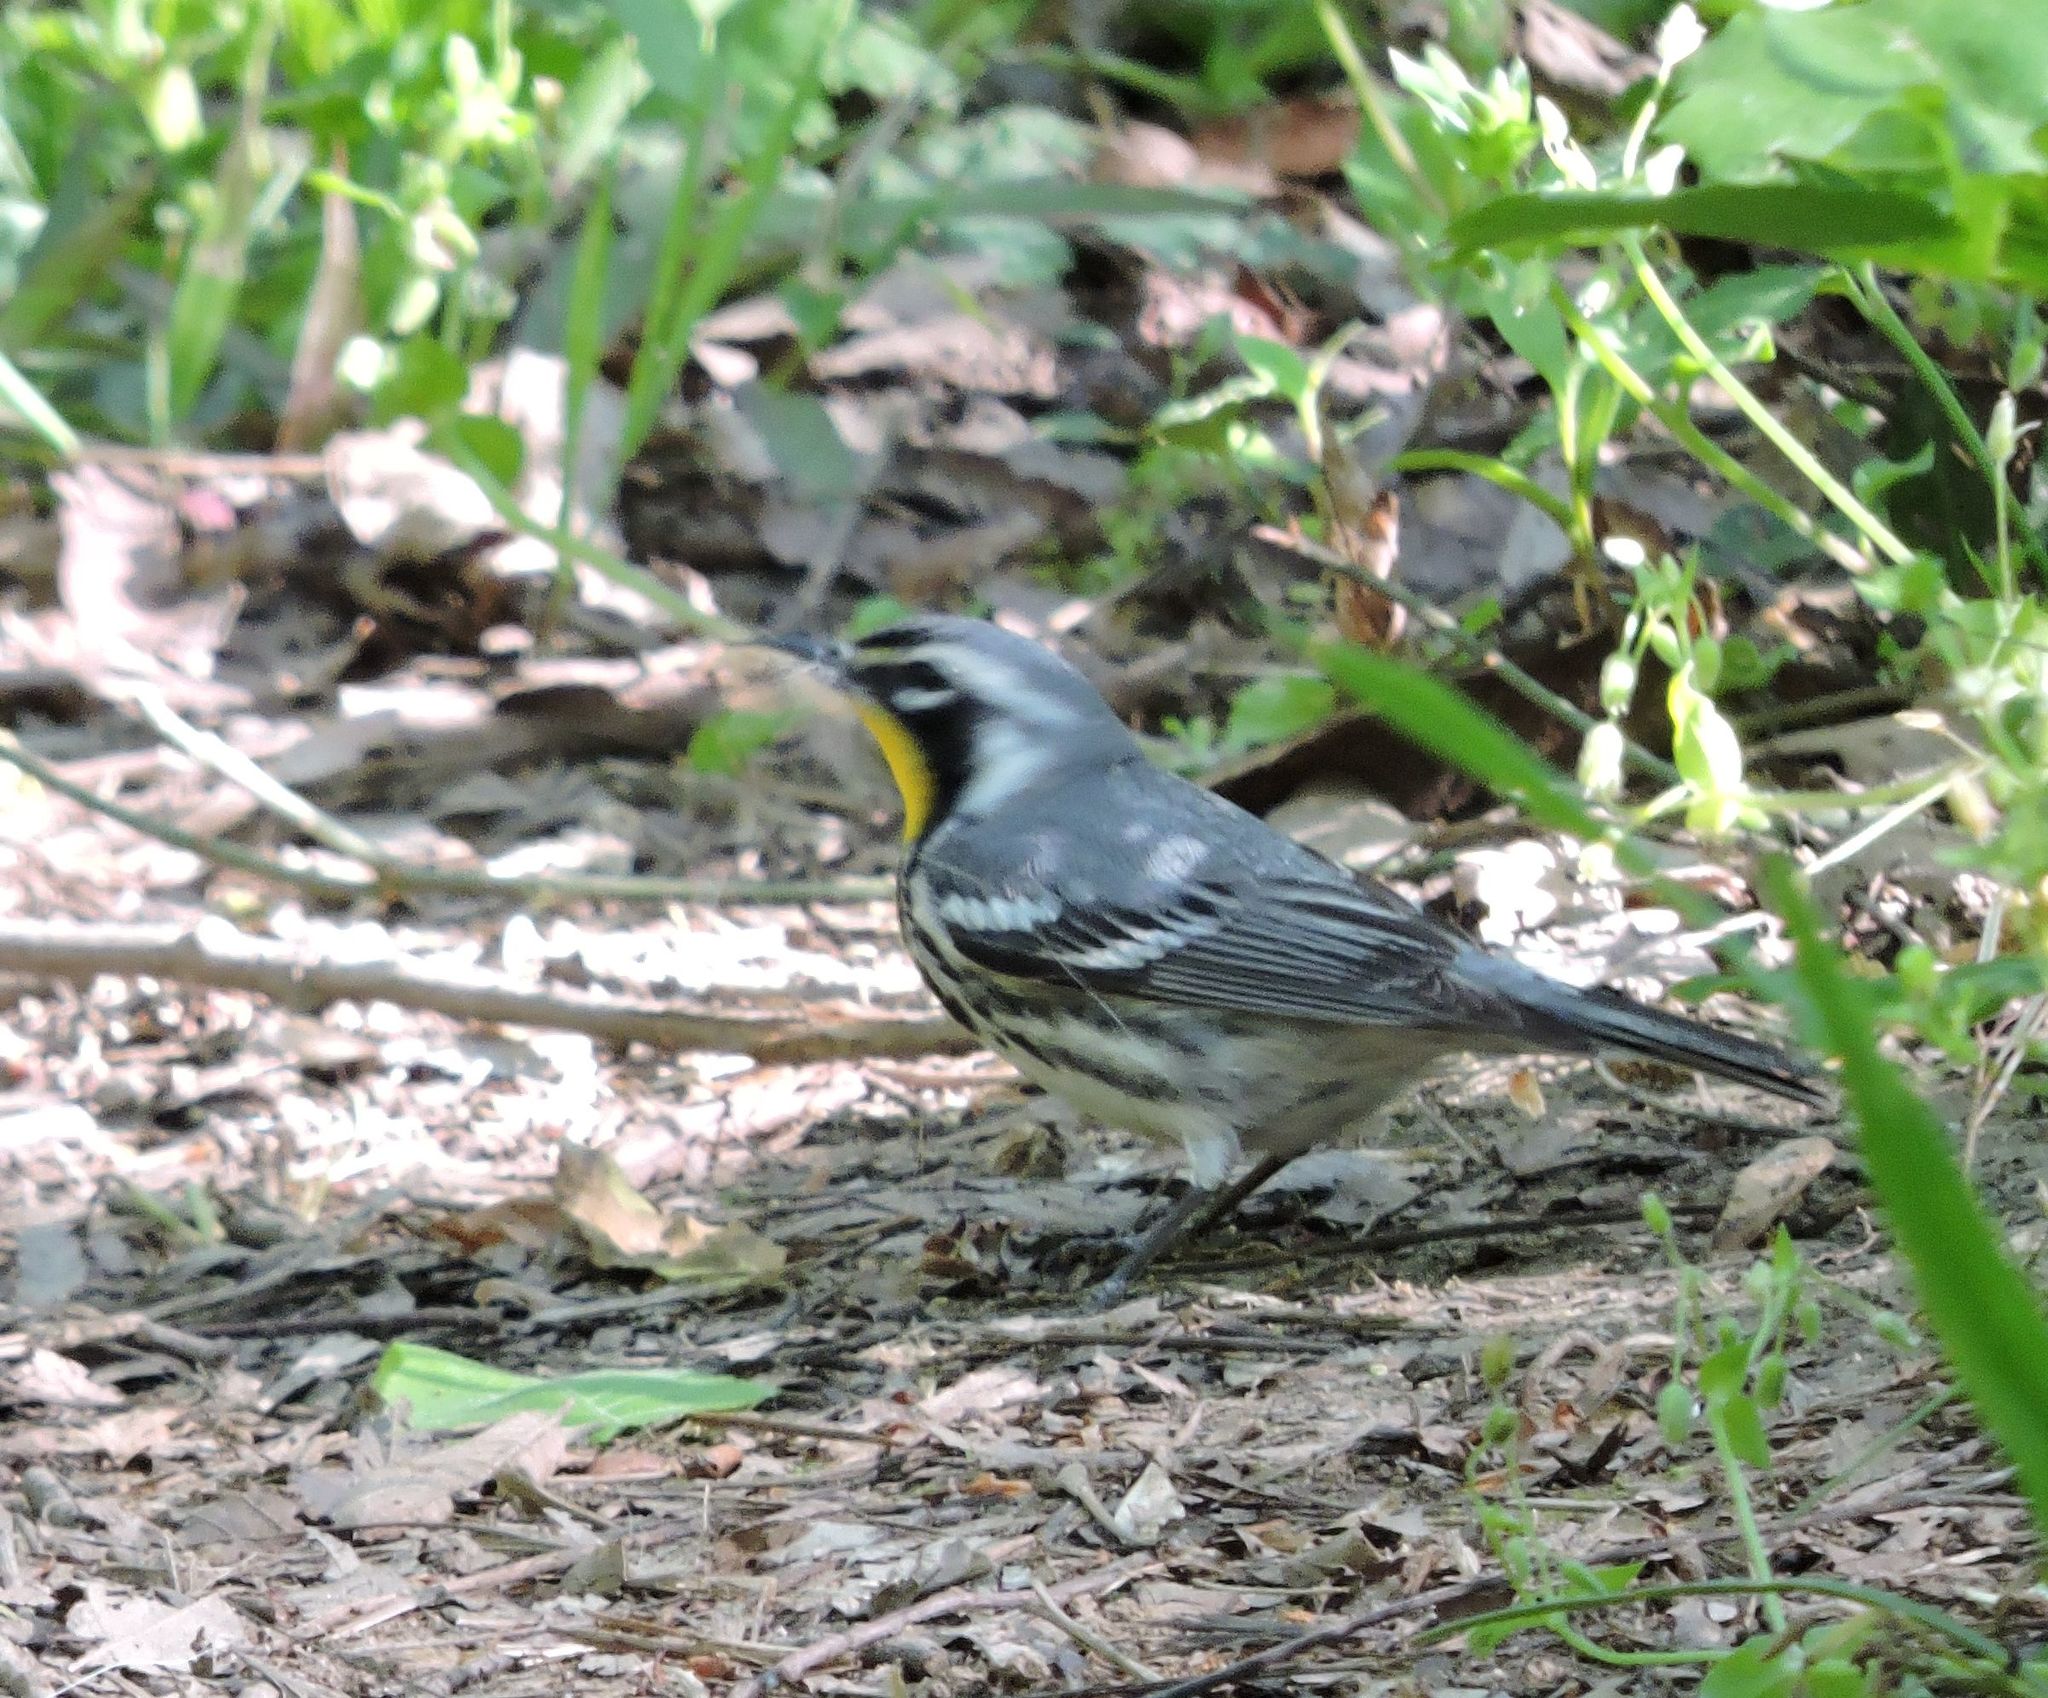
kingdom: Animalia
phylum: Chordata
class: Aves
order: Passeriformes
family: Parulidae
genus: Setophaga
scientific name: Setophaga dominica
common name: Yellow-throated warbler
